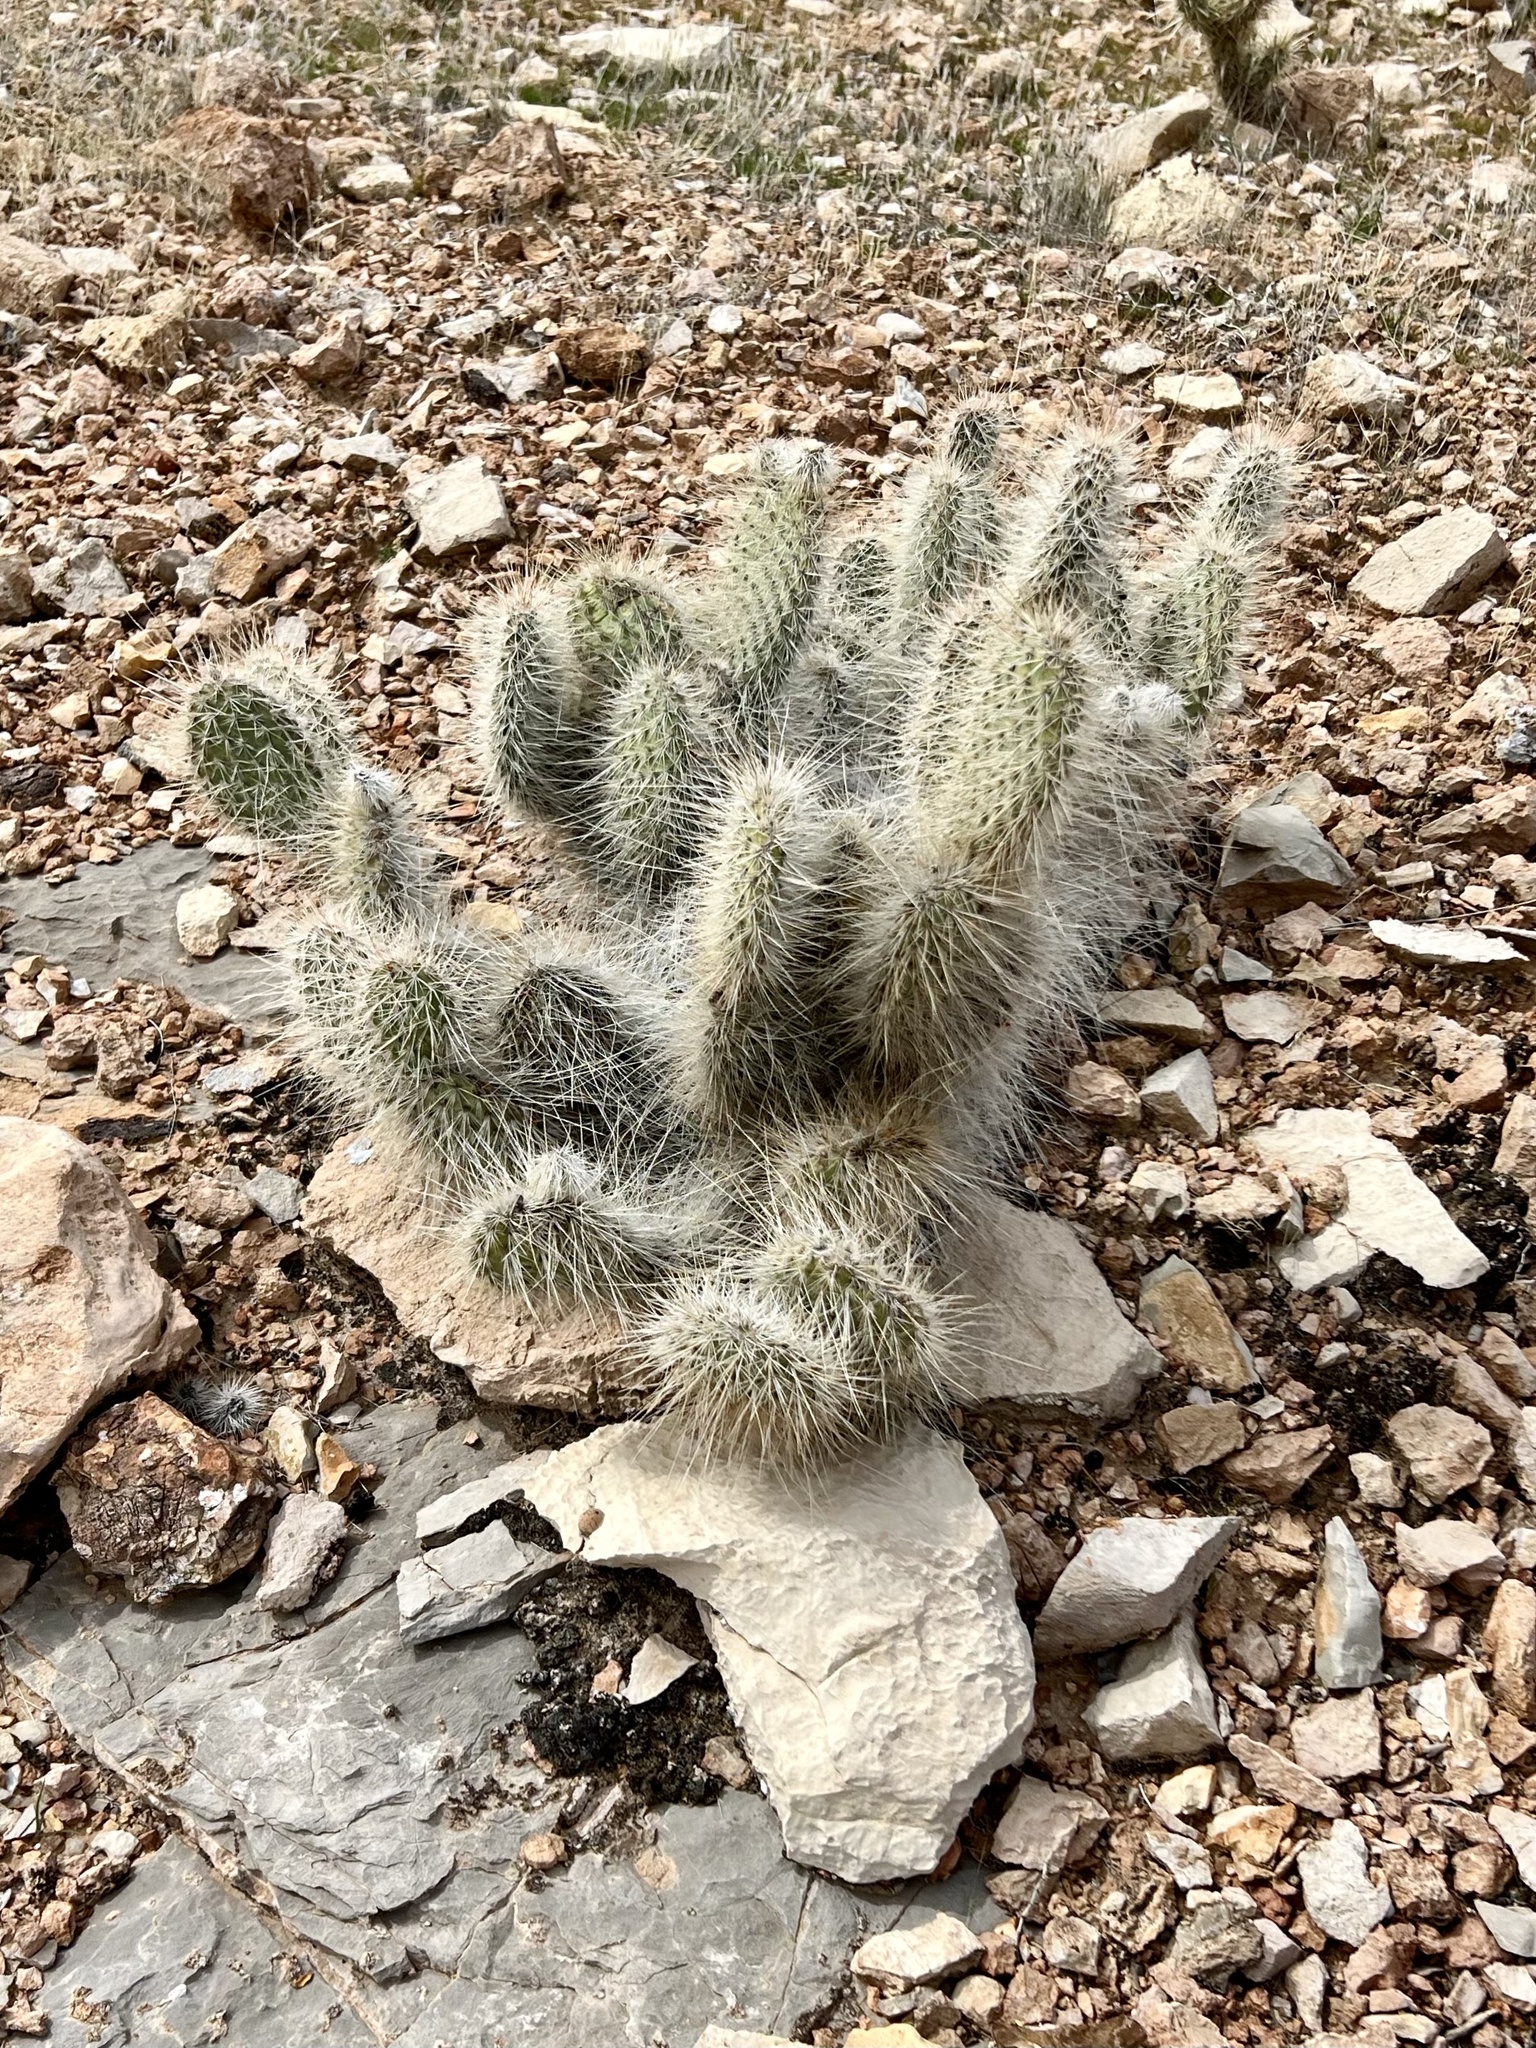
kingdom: Plantae
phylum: Tracheophyta
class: Magnoliopsida
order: Caryophyllales
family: Cactaceae
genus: Opuntia
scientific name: Opuntia polyacantha
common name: Plains prickly-pear
